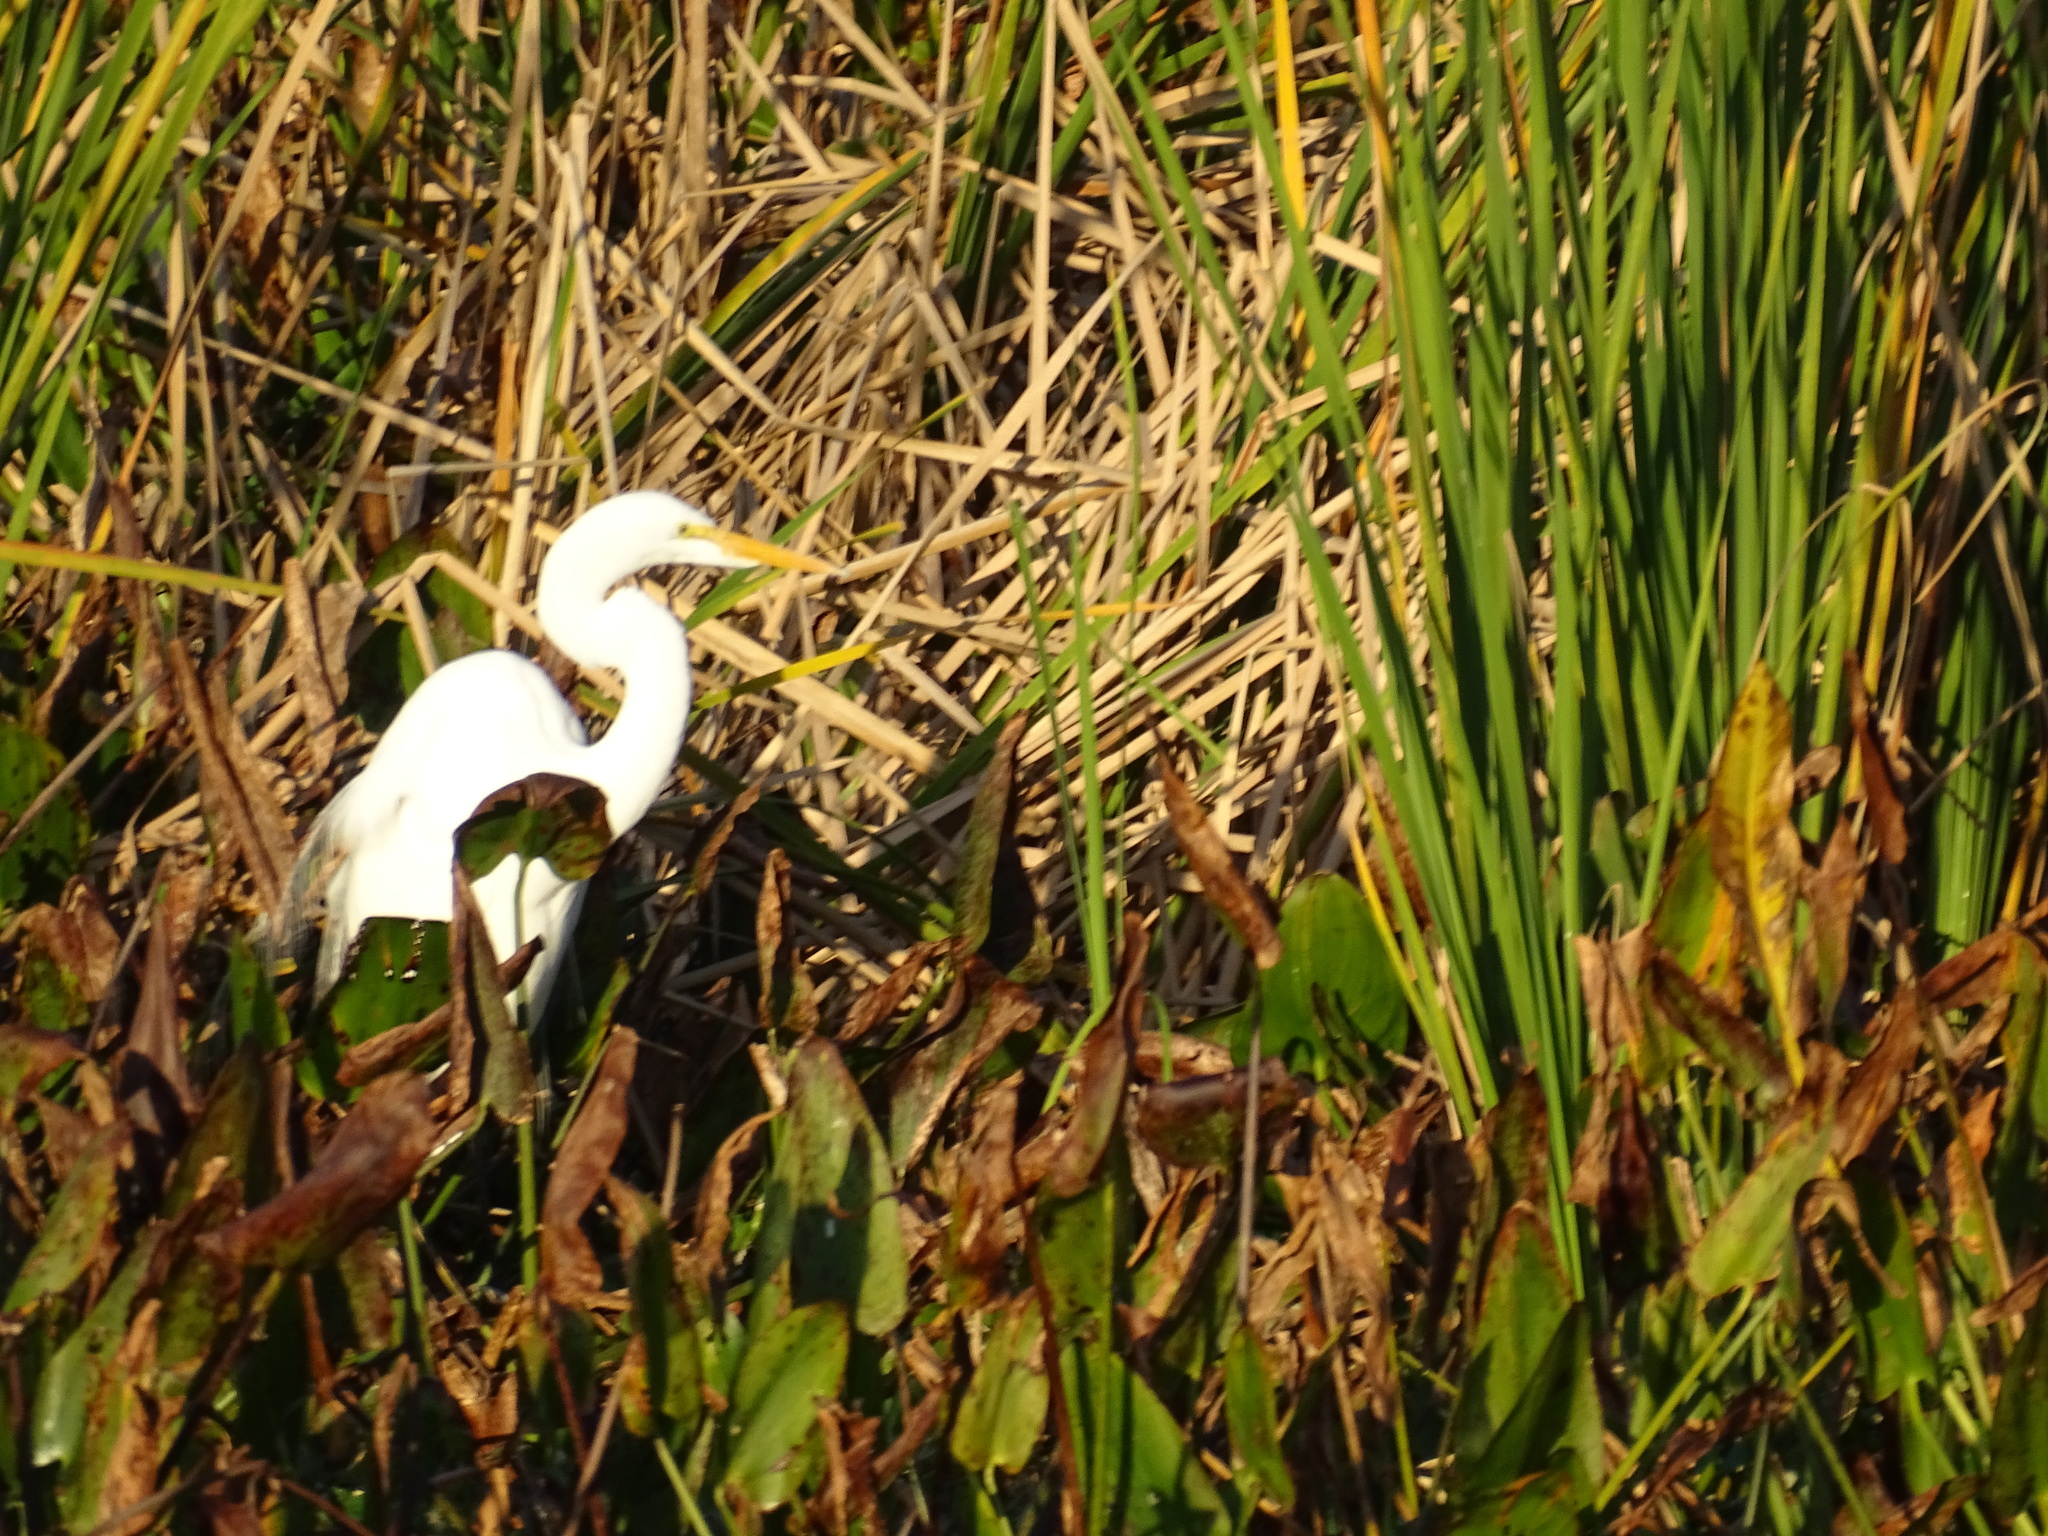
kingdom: Animalia
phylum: Chordata
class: Aves
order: Pelecaniformes
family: Ardeidae
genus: Ardea
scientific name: Ardea alba
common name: Great egret
